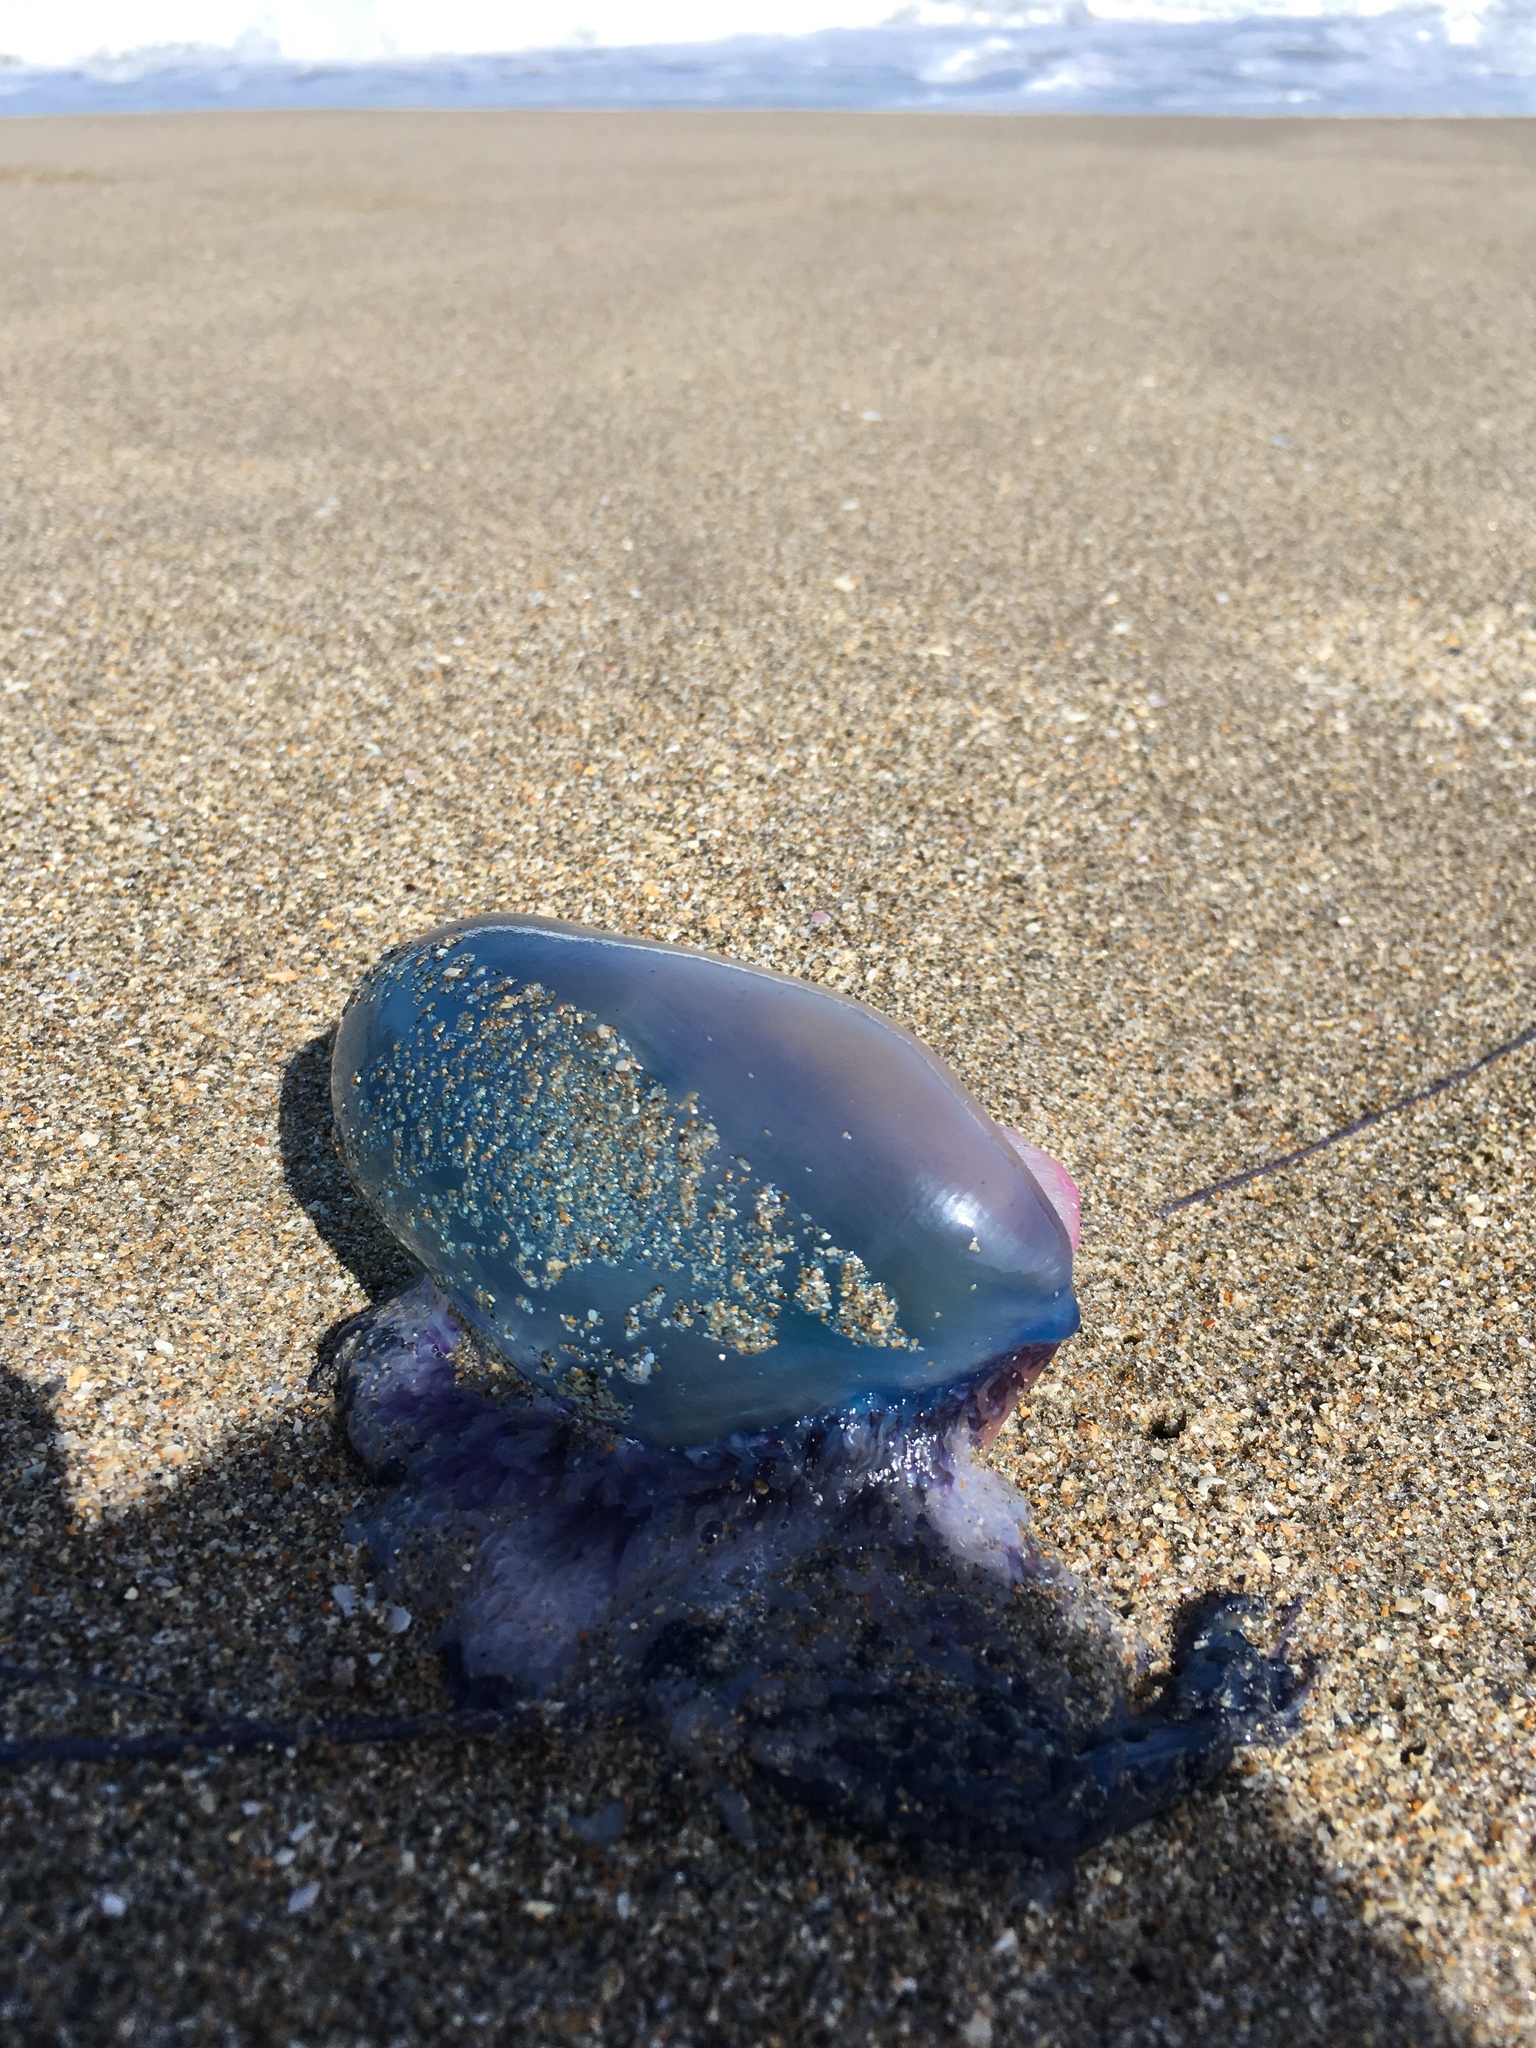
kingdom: Animalia
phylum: Cnidaria
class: Hydrozoa
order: Siphonophorae
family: Physaliidae
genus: Physalia
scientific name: Physalia physalis
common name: Portuguese man-of-war
